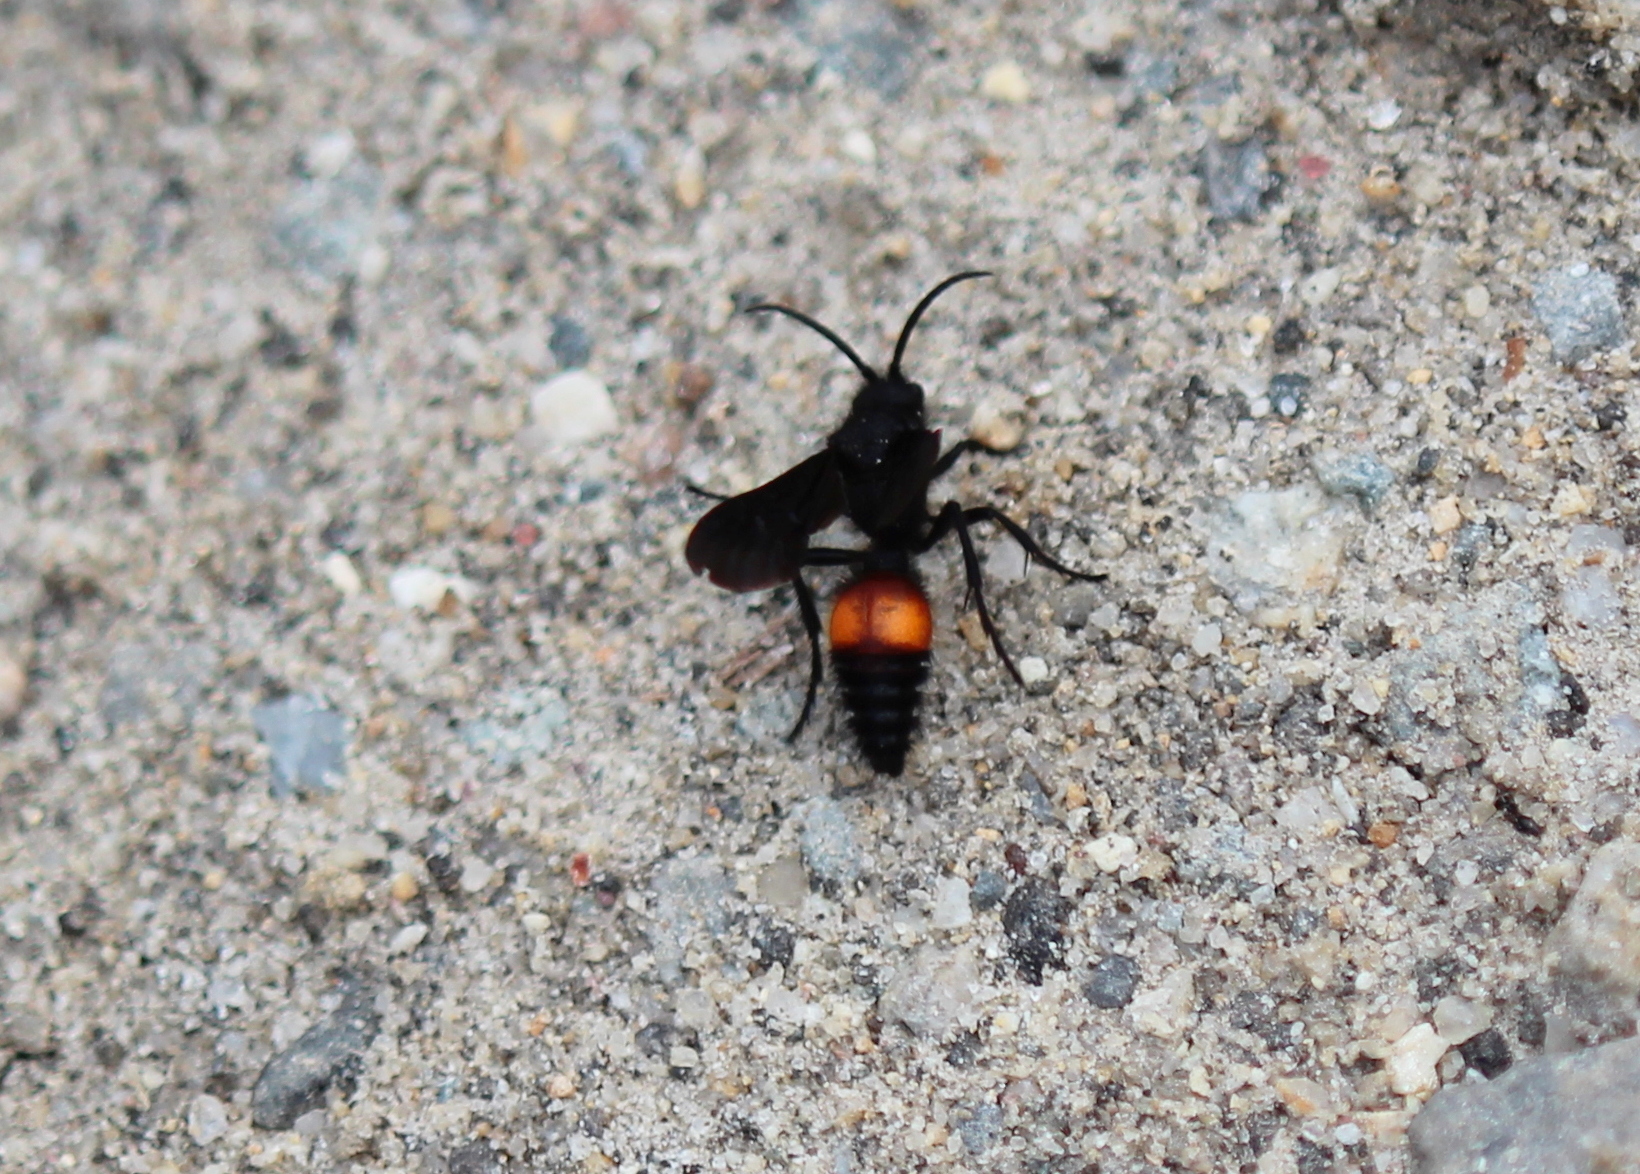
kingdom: Animalia
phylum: Arthropoda
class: Insecta
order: Hymenoptera
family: Mutillidae
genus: Dasymutilla
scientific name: Dasymutilla
